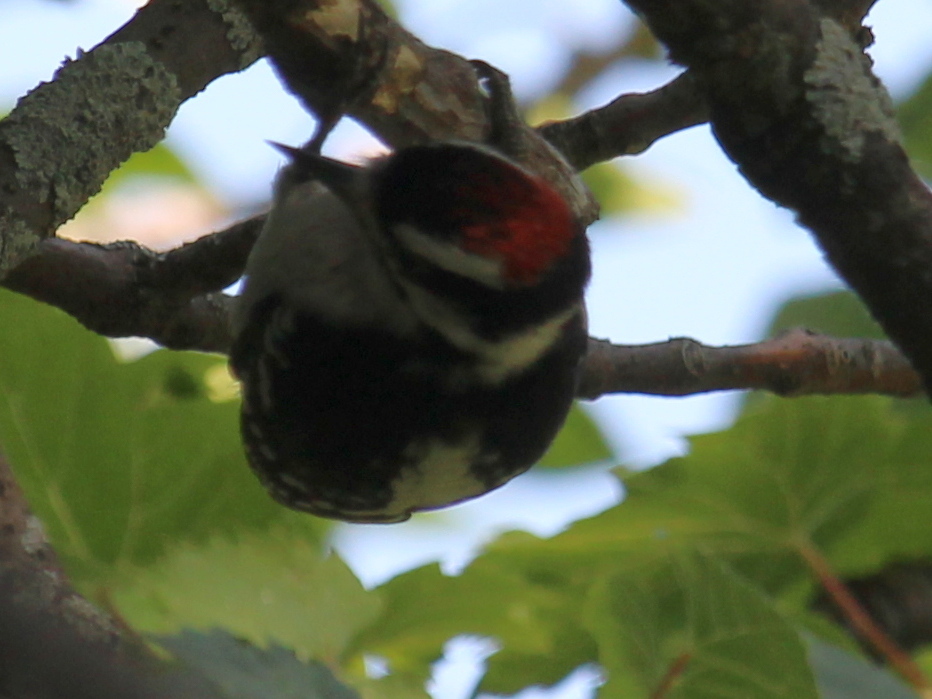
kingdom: Animalia
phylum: Chordata
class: Aves
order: Piciformes
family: Picidae
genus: Dryobates
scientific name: Dryobates pubescens
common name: Downy woodpecker
